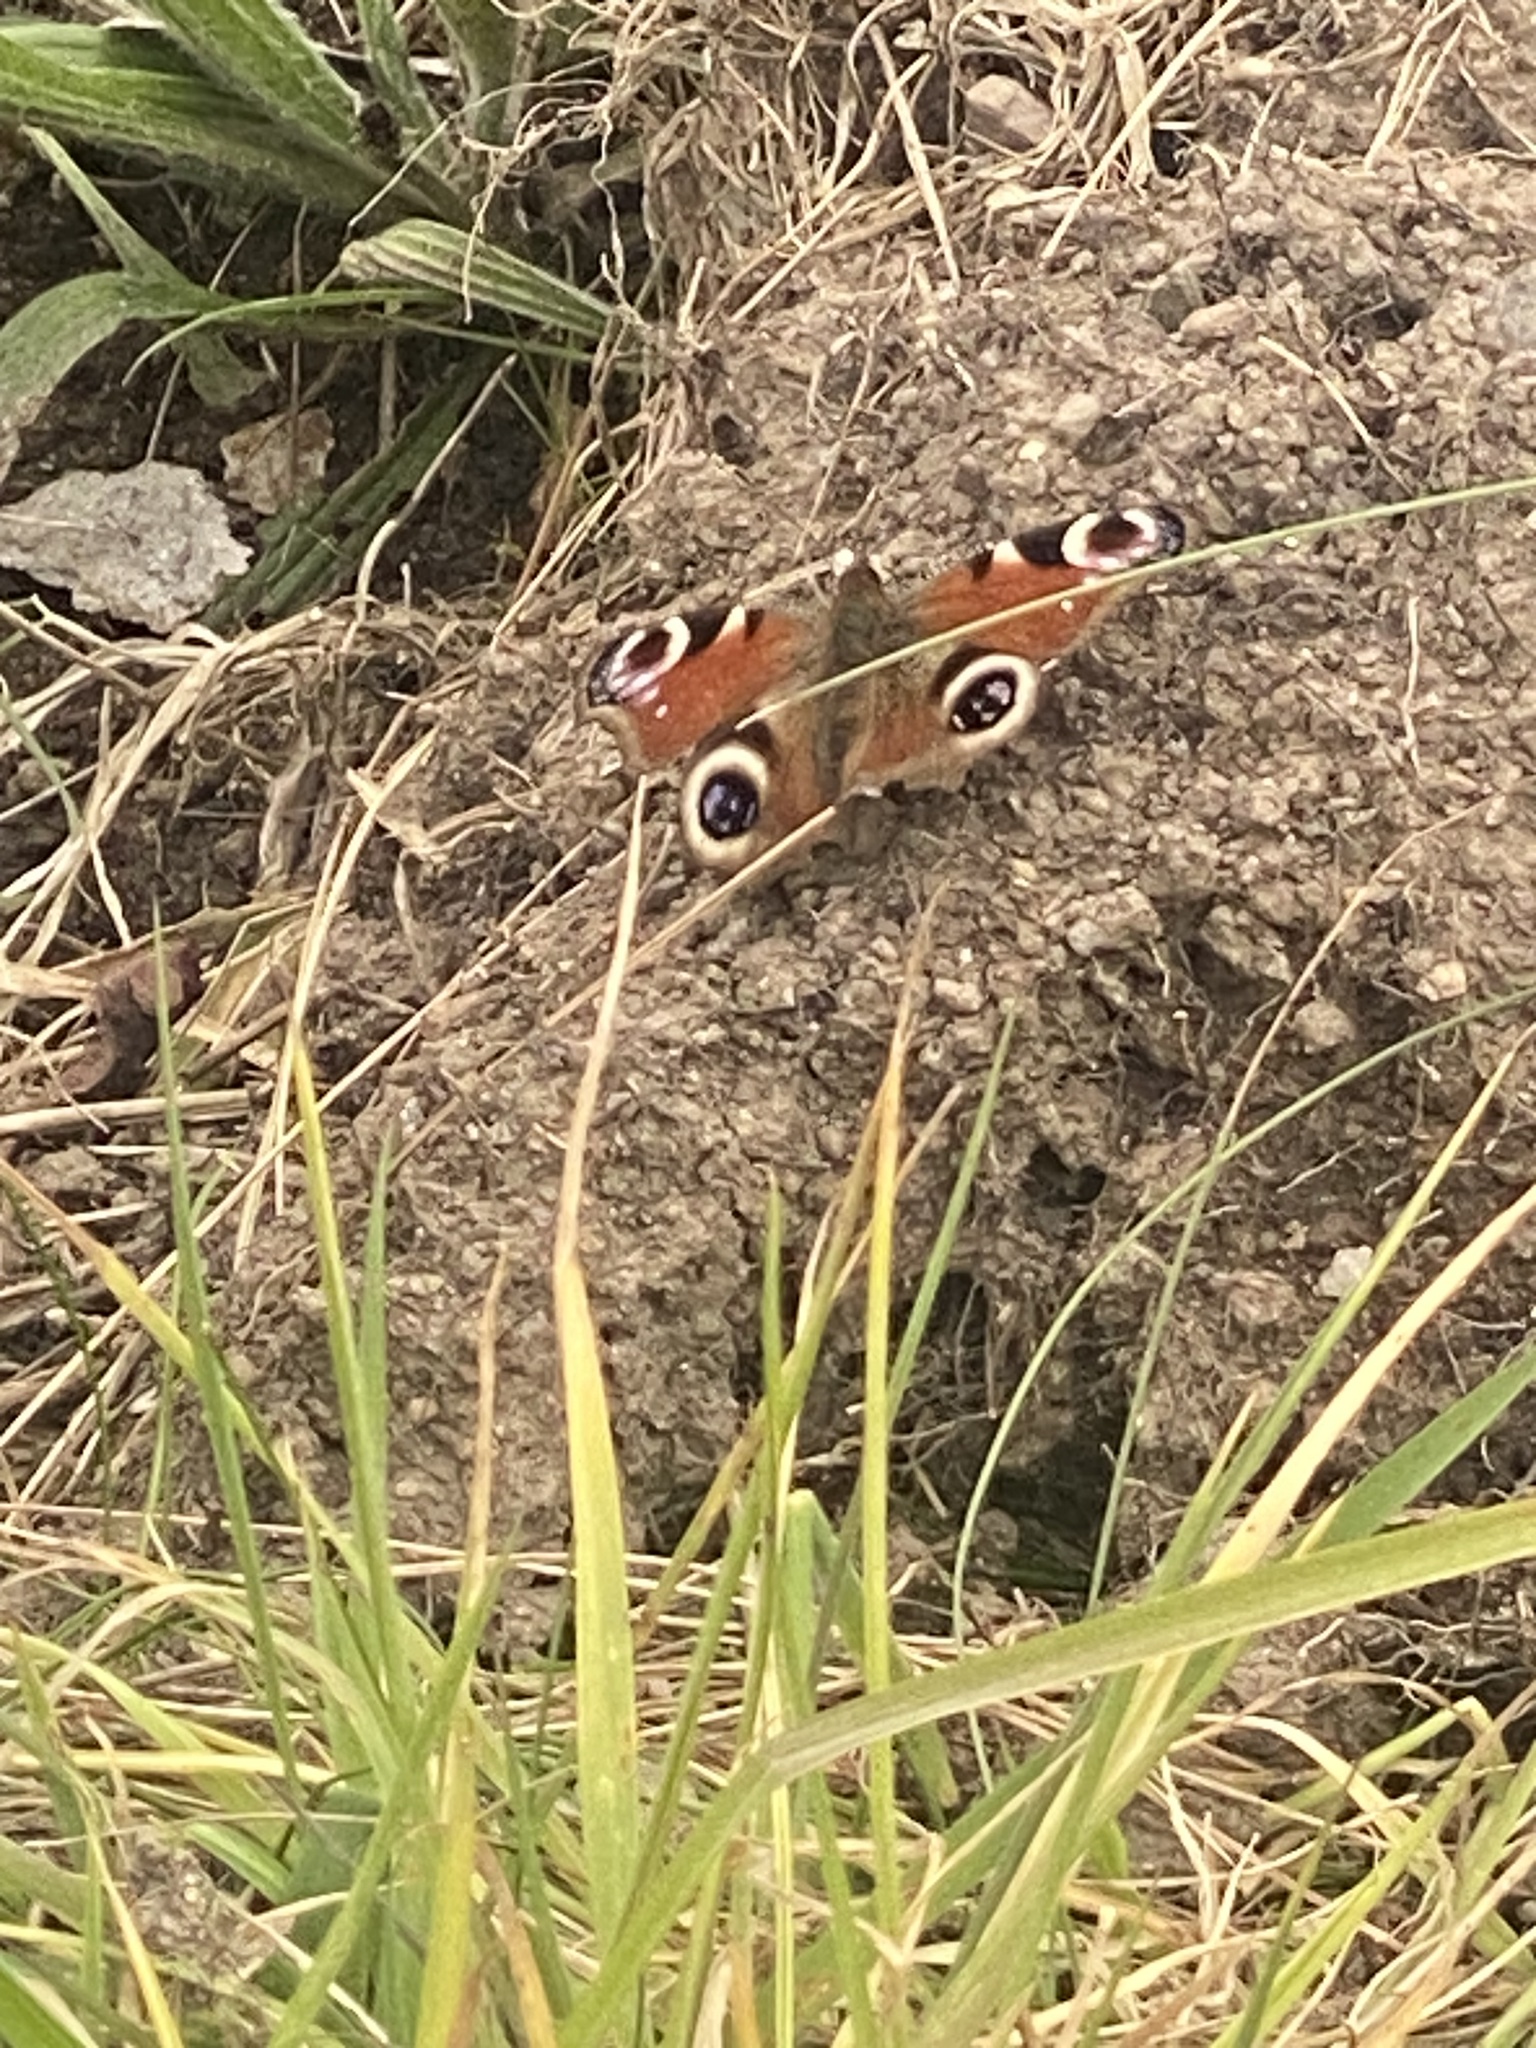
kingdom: Animalia
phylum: Arthropoda
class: Insecta
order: Lepidoptera
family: Nymphalidae
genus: Aglais
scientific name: Aglais io
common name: Peacock
